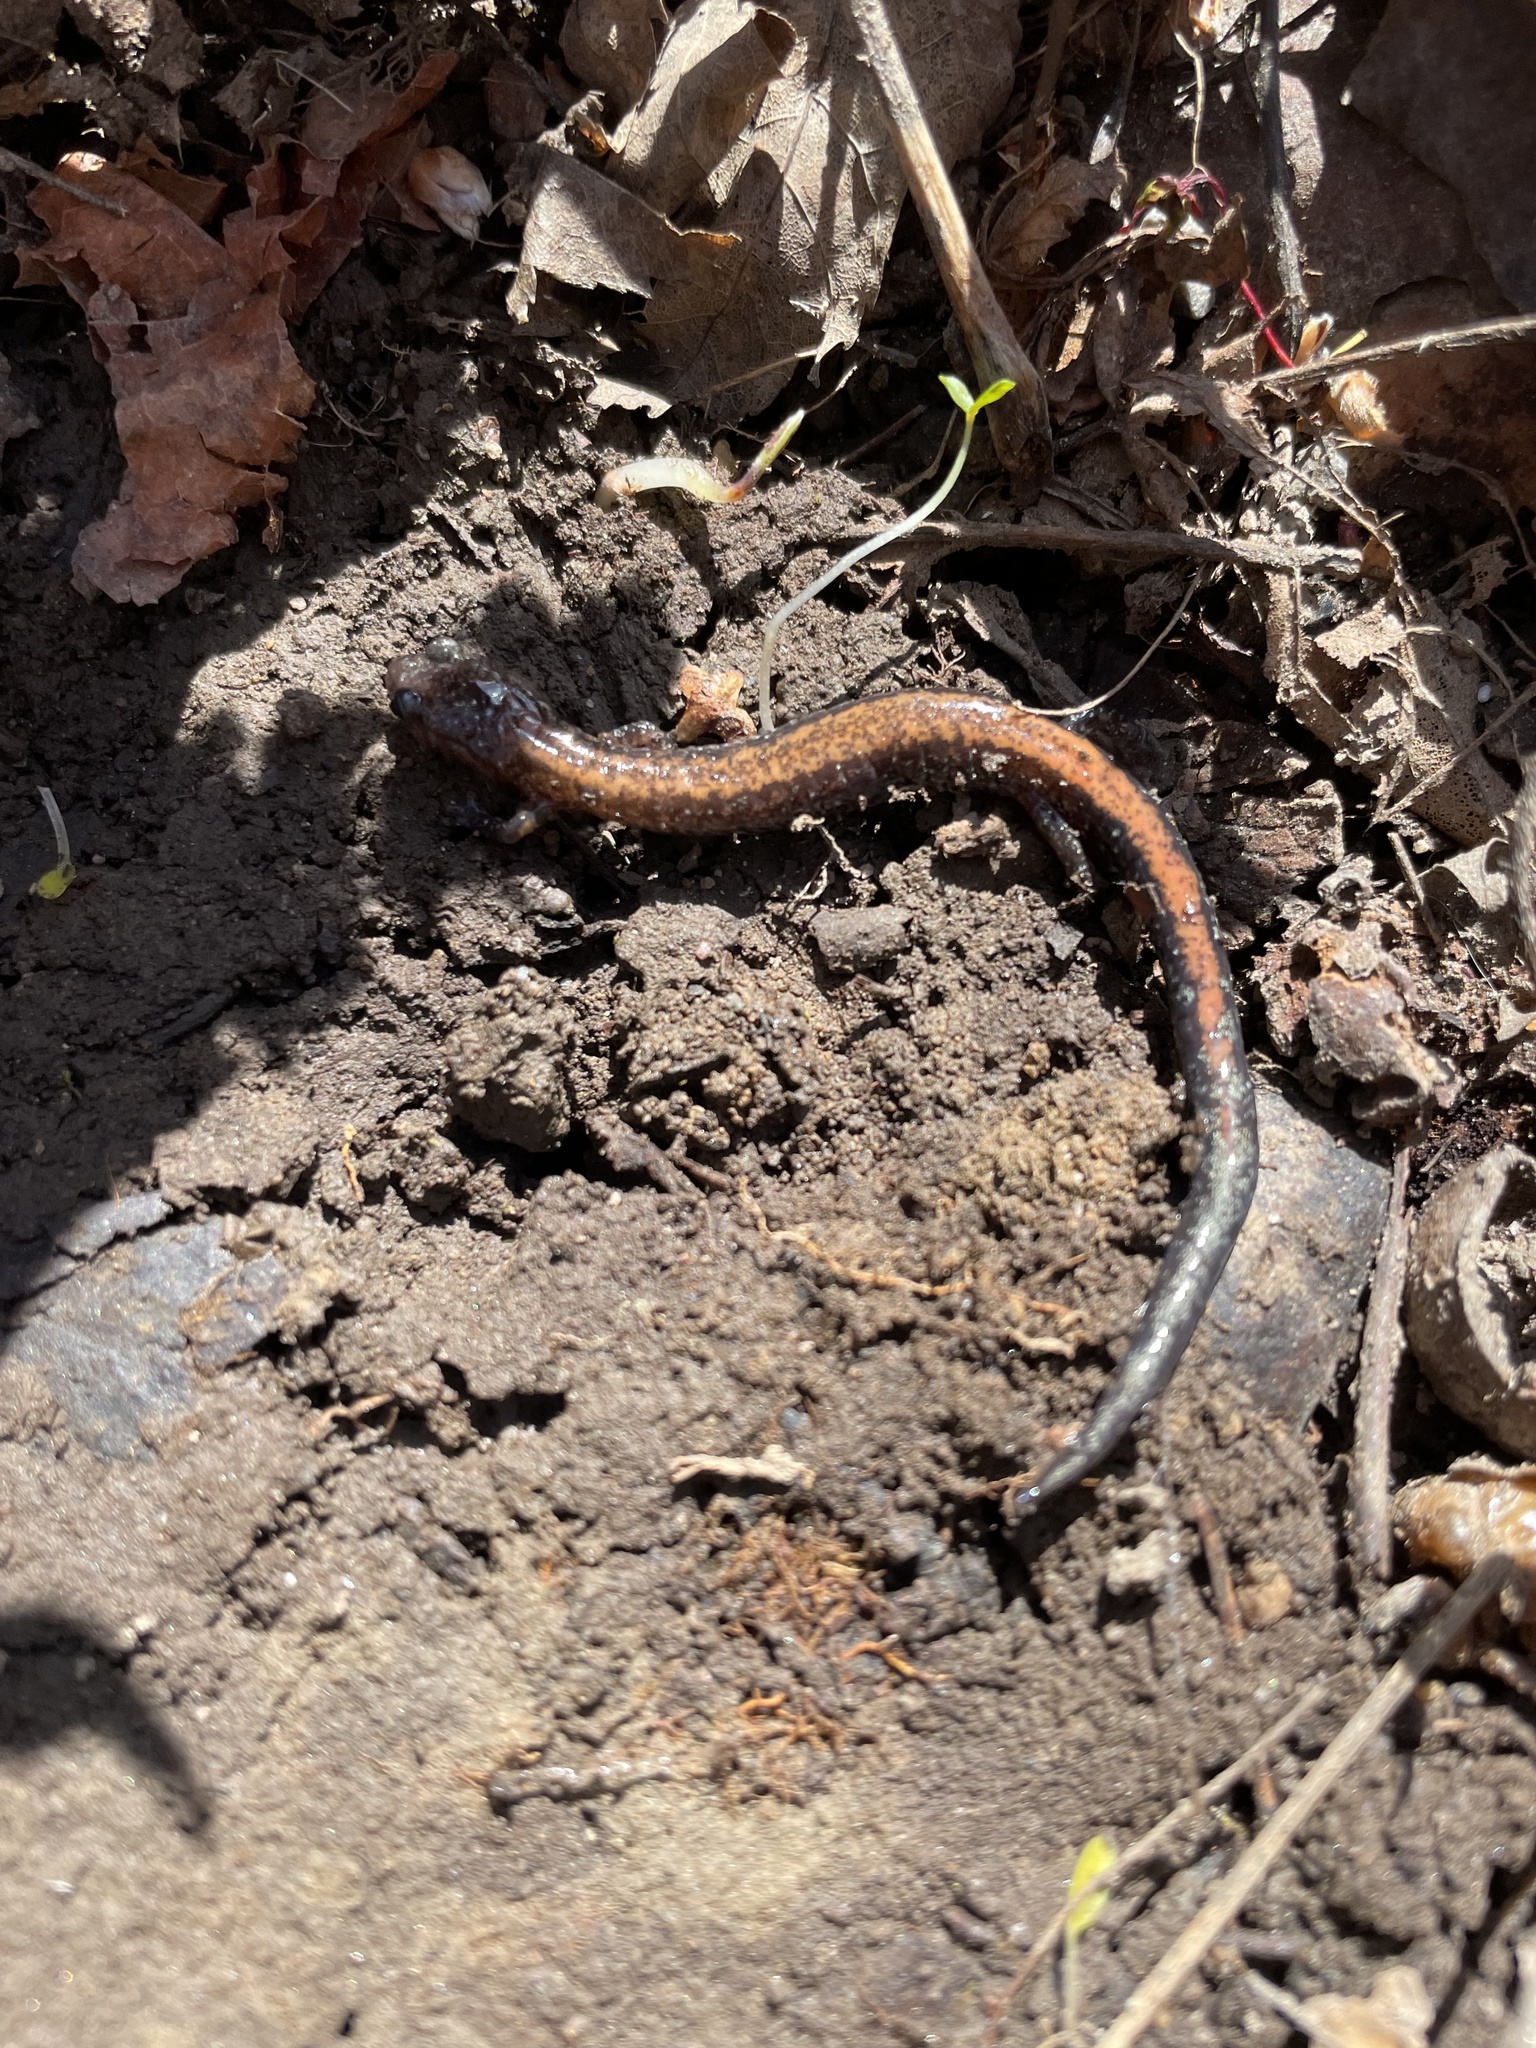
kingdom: Animalia
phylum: Chordata
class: Amphibia
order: Caudata
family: Plethodontidae
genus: Plethodon
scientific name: Plethodon cinereus
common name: Redback salamander
